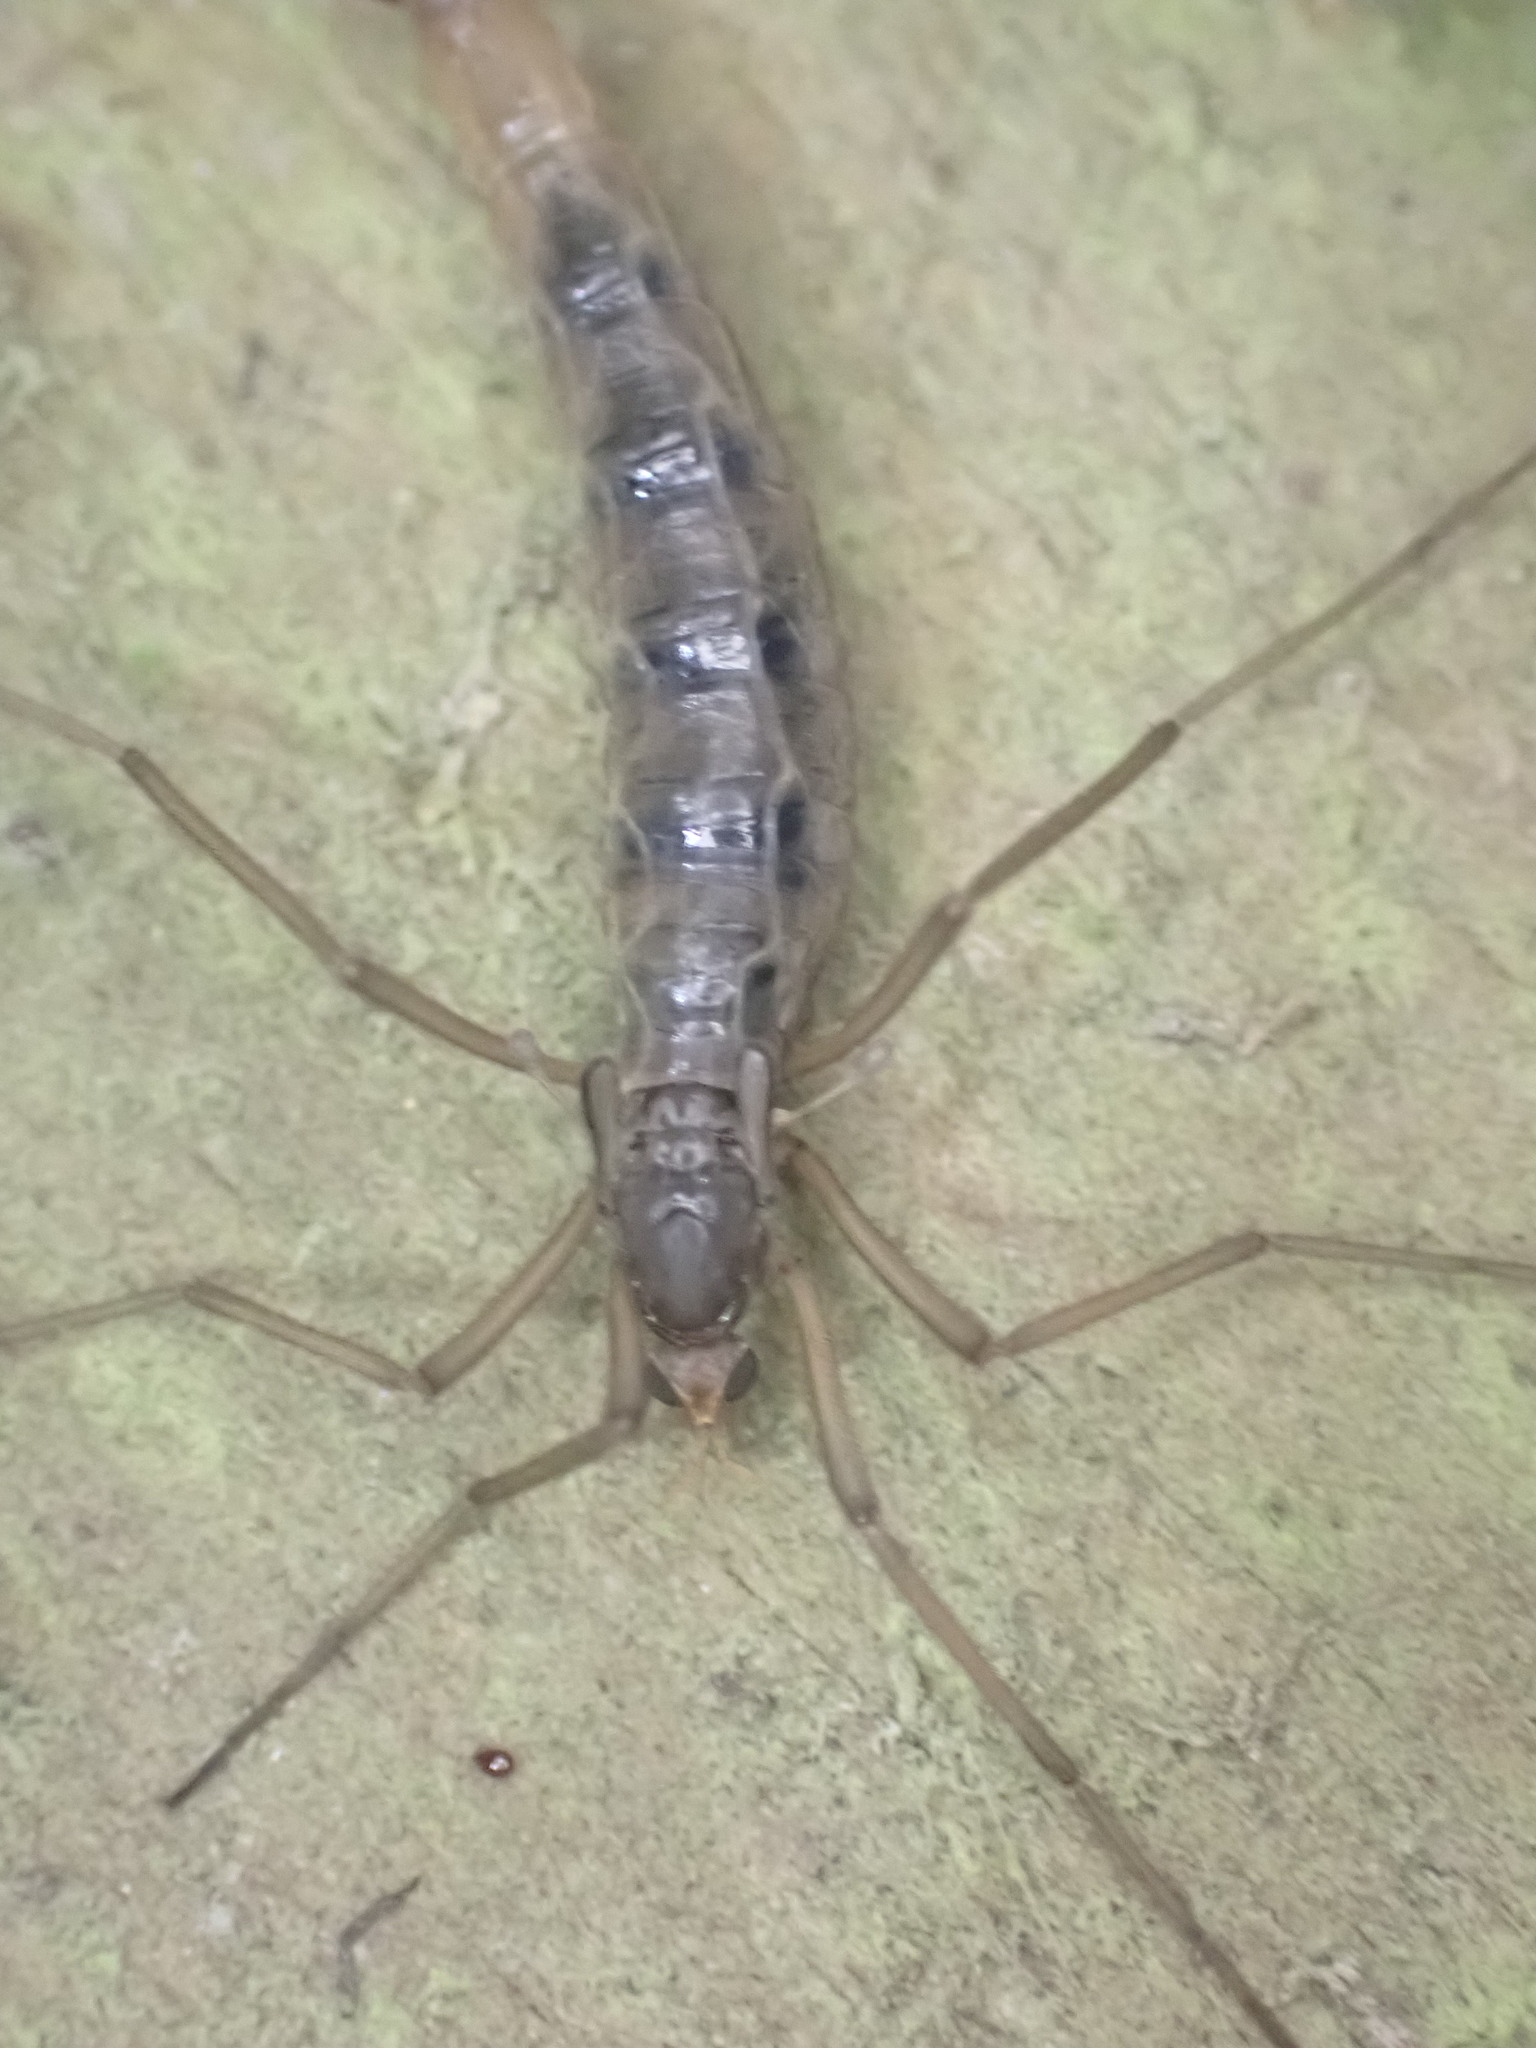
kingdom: Animalia
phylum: Arthropoda
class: Insecta
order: Diptera
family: Tipulidae
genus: Leptotarsus
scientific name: Leptotarsus heterogamus
